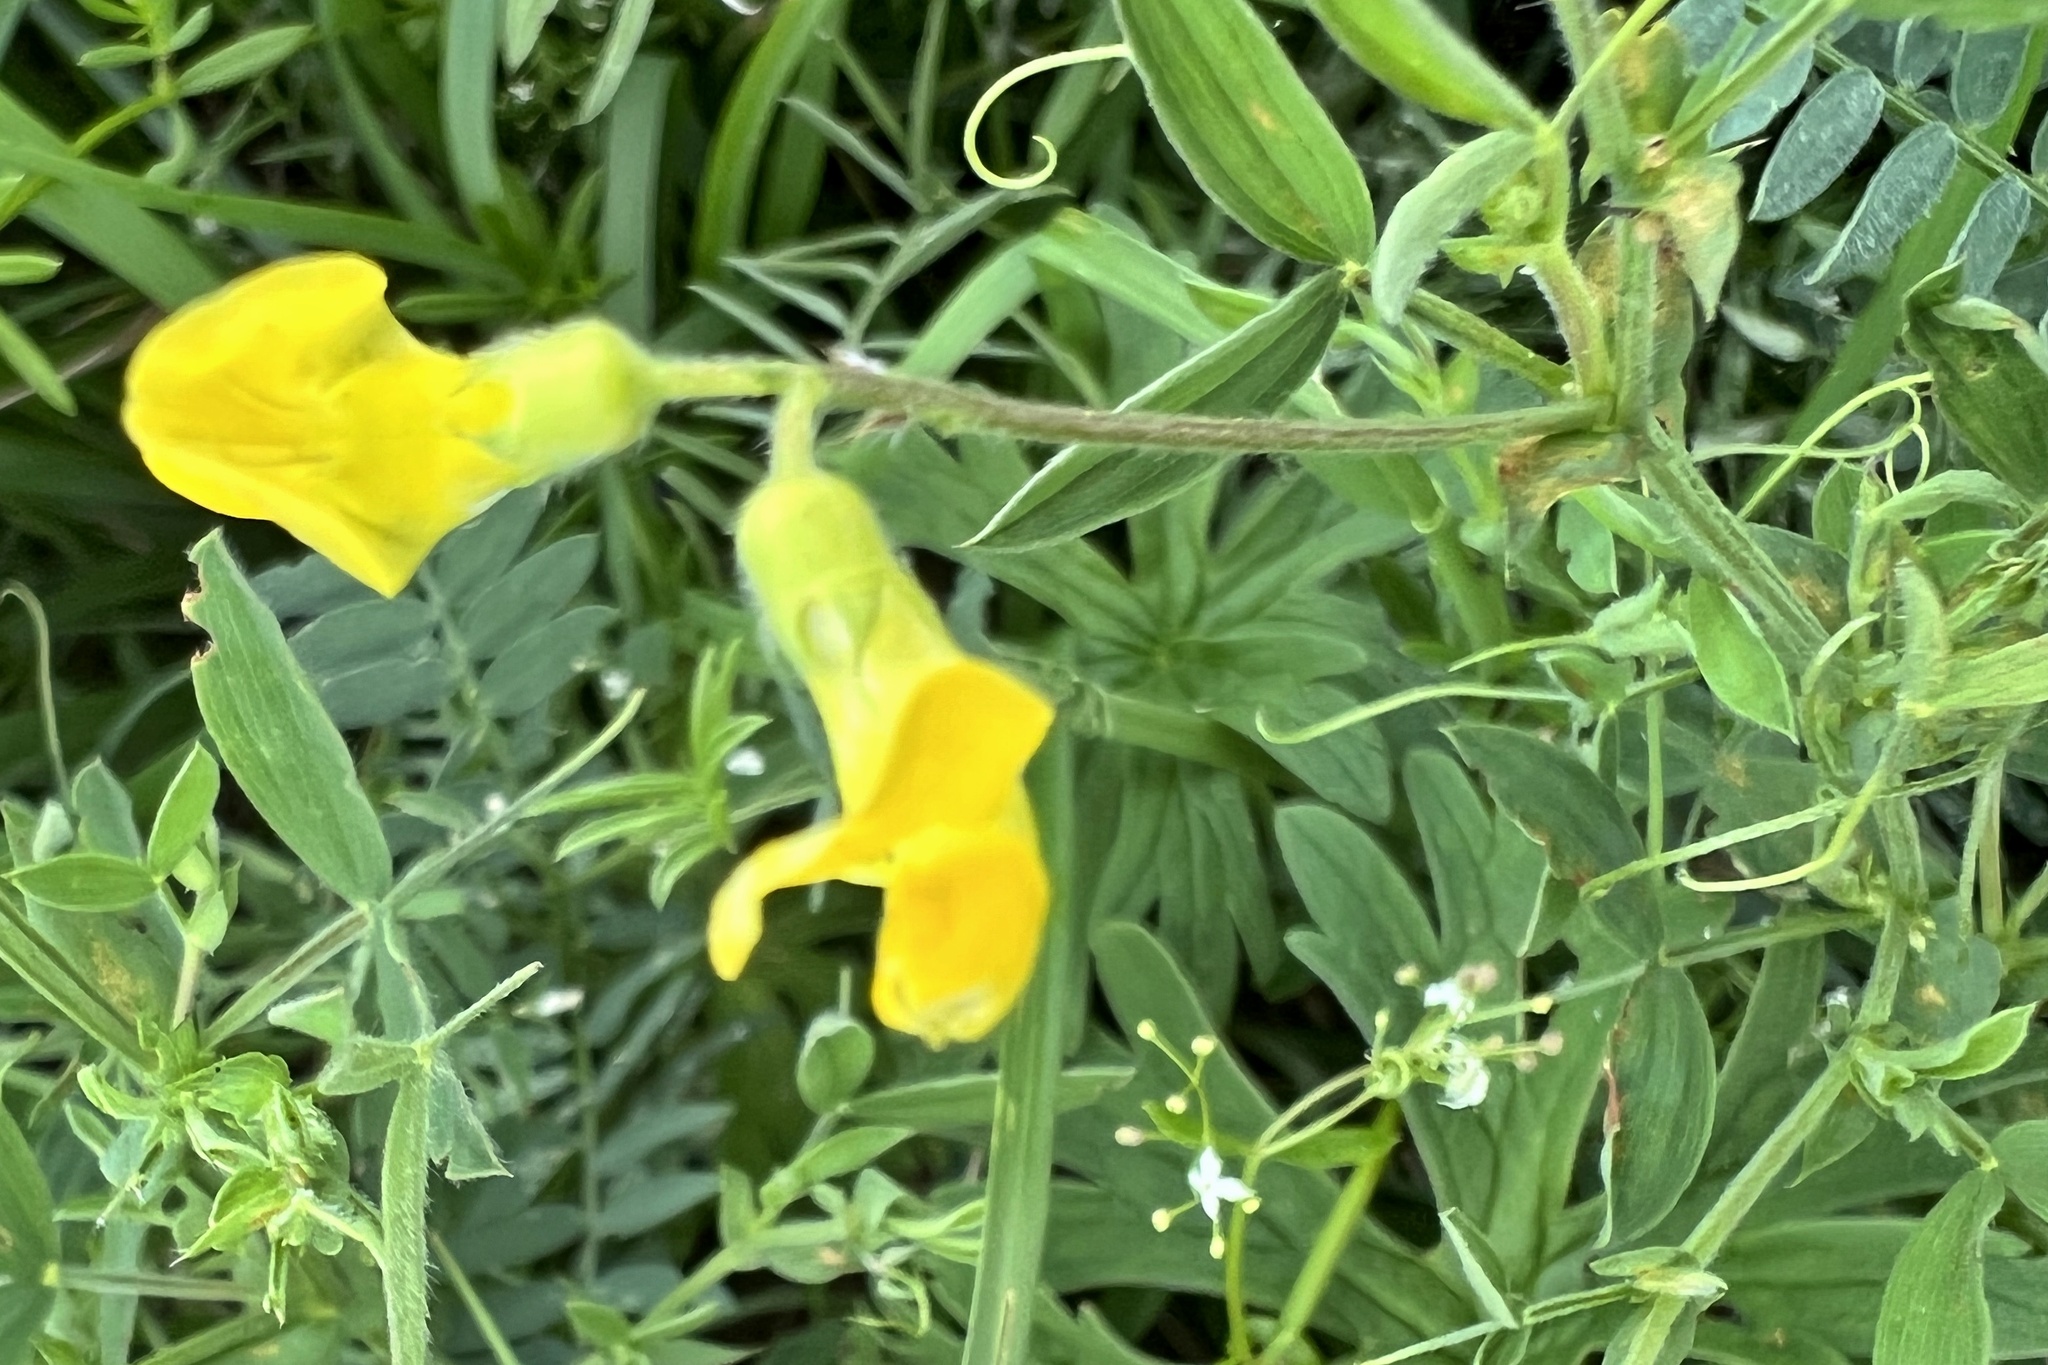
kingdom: Plantae
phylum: Tracheophyta
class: Magnoliopsida
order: Fabales
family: Fabaceae
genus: Lathyrus
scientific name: Lathyrus pratensis
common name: Meadow vetchling
